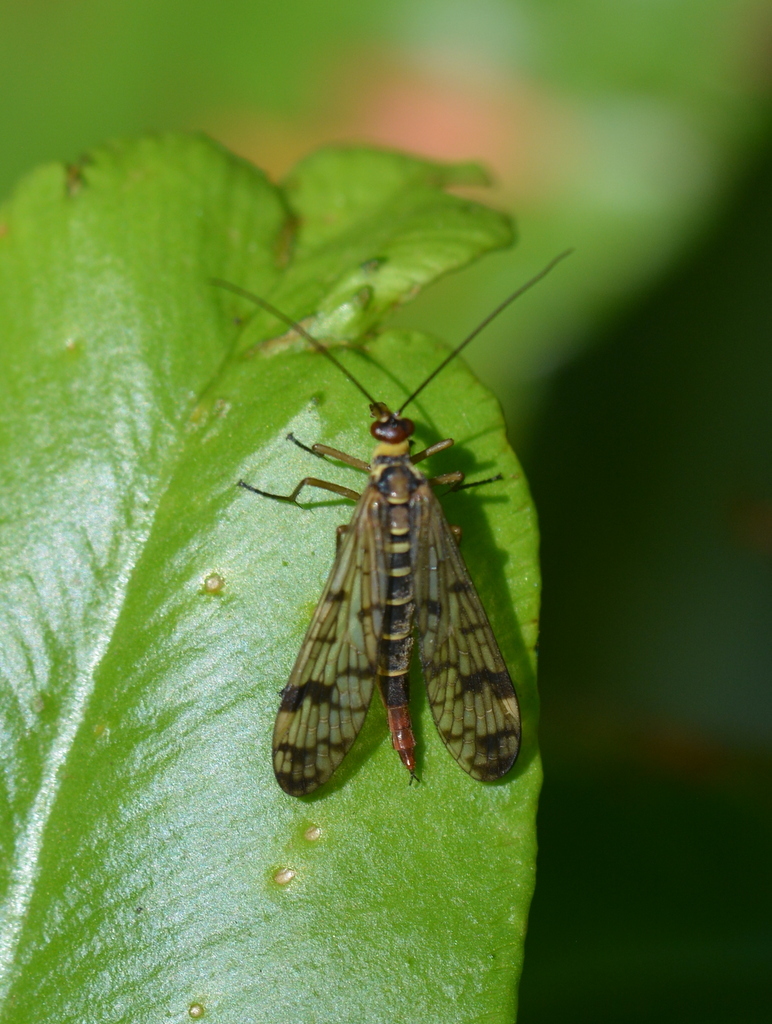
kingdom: Animalia
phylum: Arthropoda
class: Insecta
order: Mecoptera
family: Panorpidae
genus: Panorpa
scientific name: Panorpa cognata
